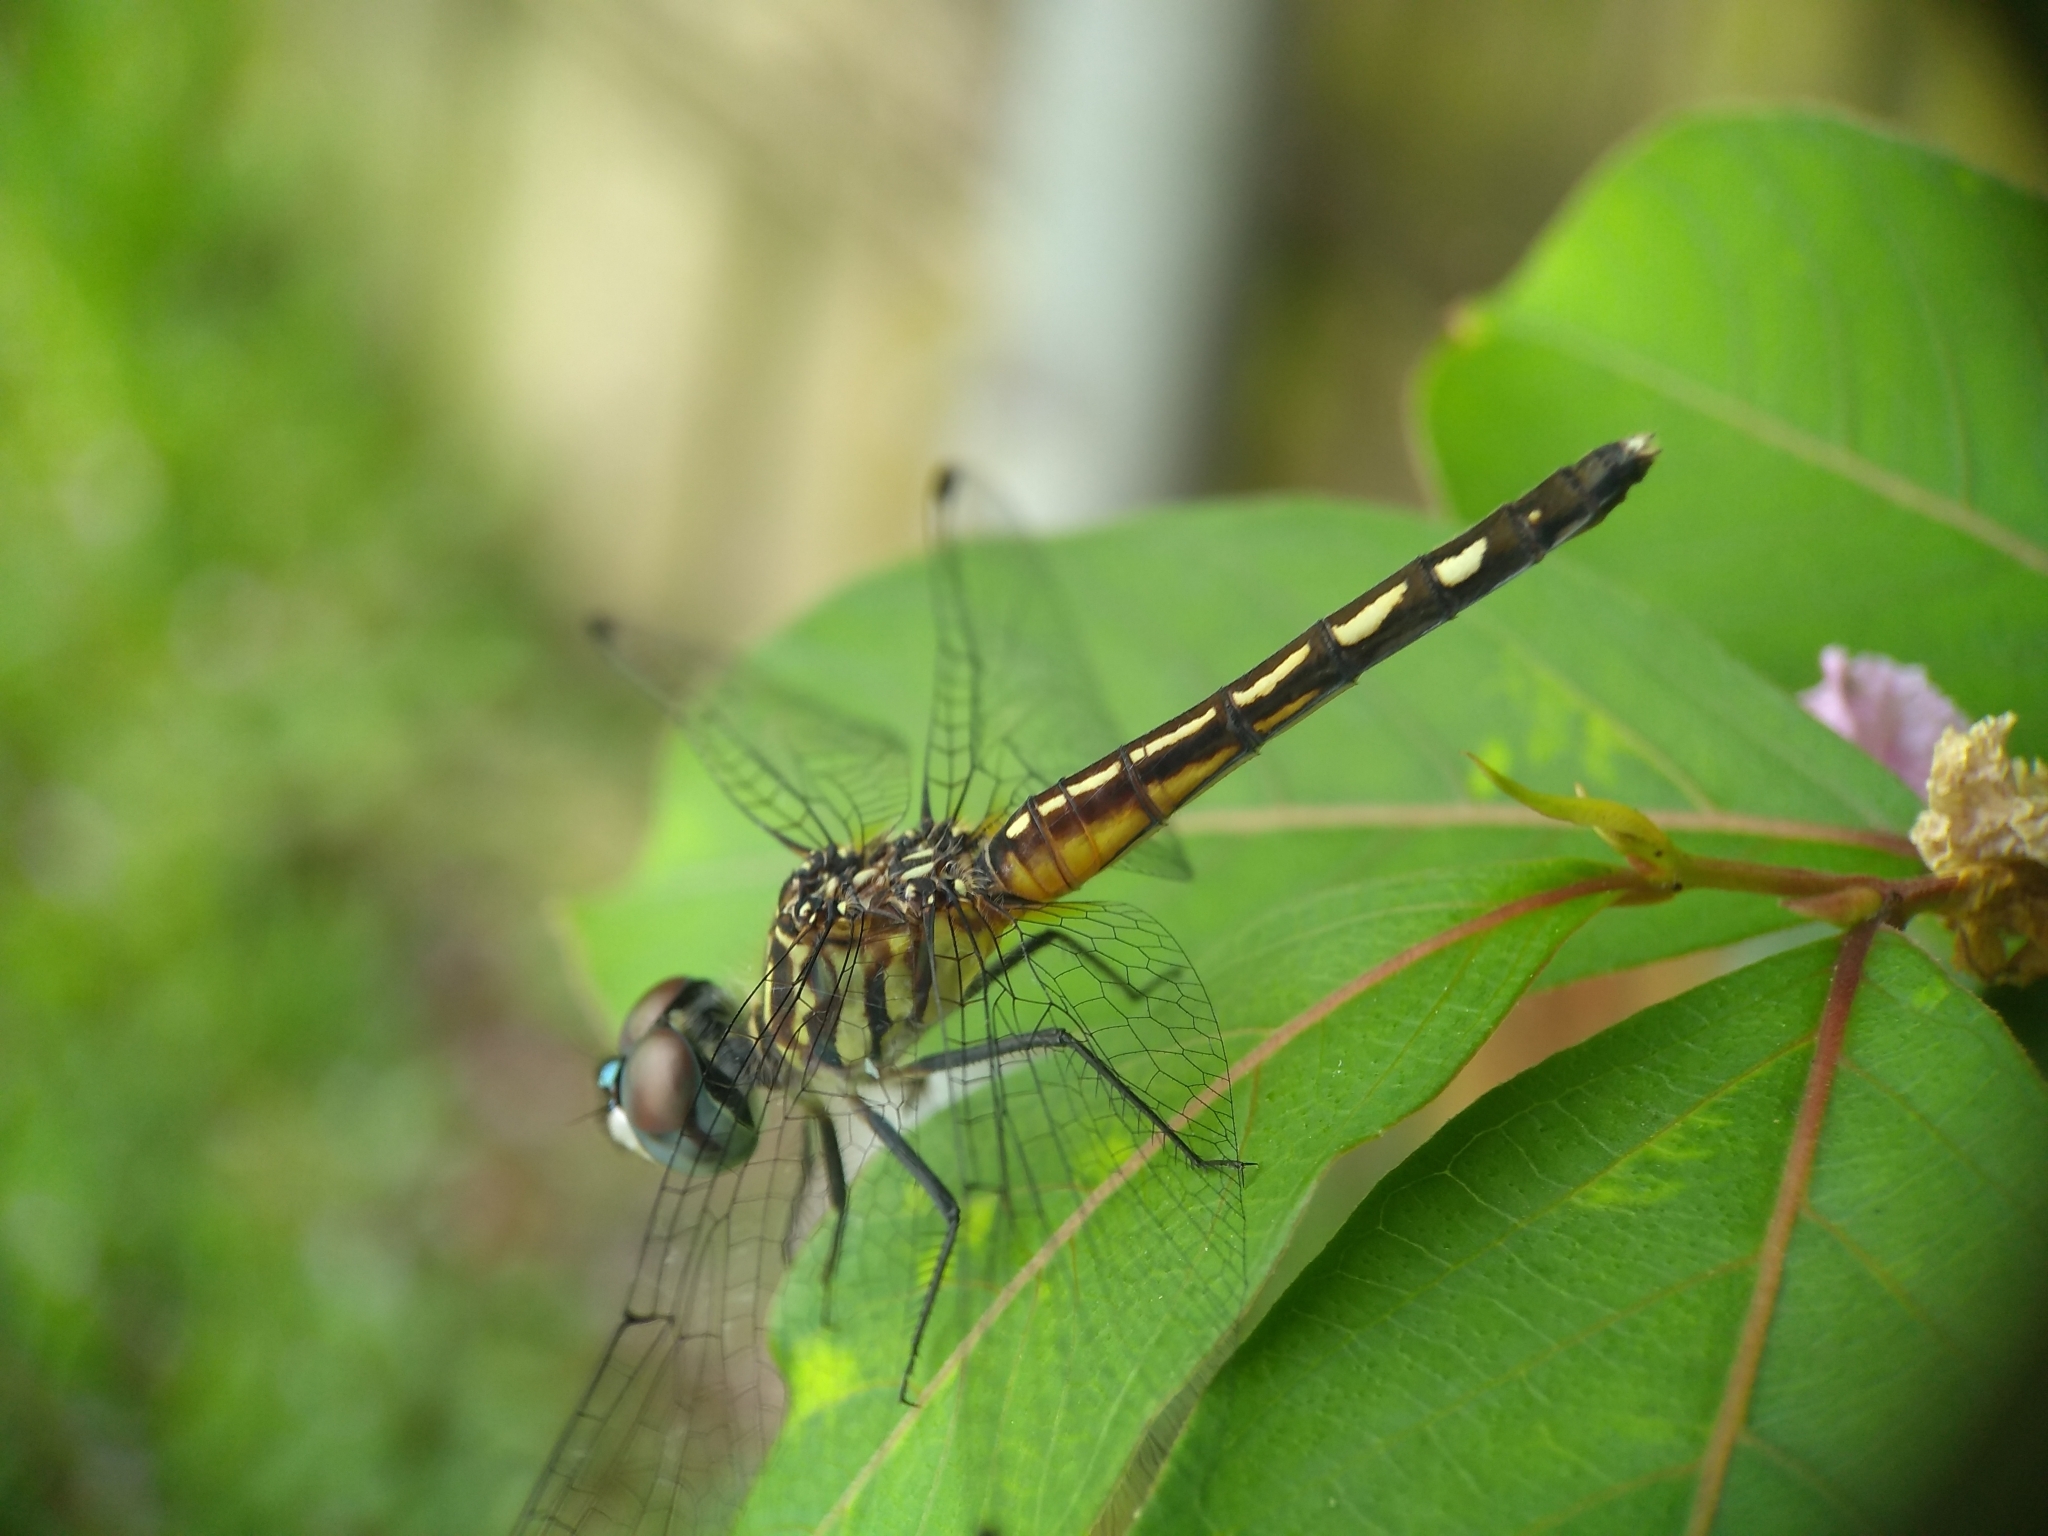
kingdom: Animalia
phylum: Arthropoda
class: Insecta
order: Odonata
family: Libellulidae
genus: Pachydiplax
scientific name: Pachydiplax longipennis
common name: Blue dasher
